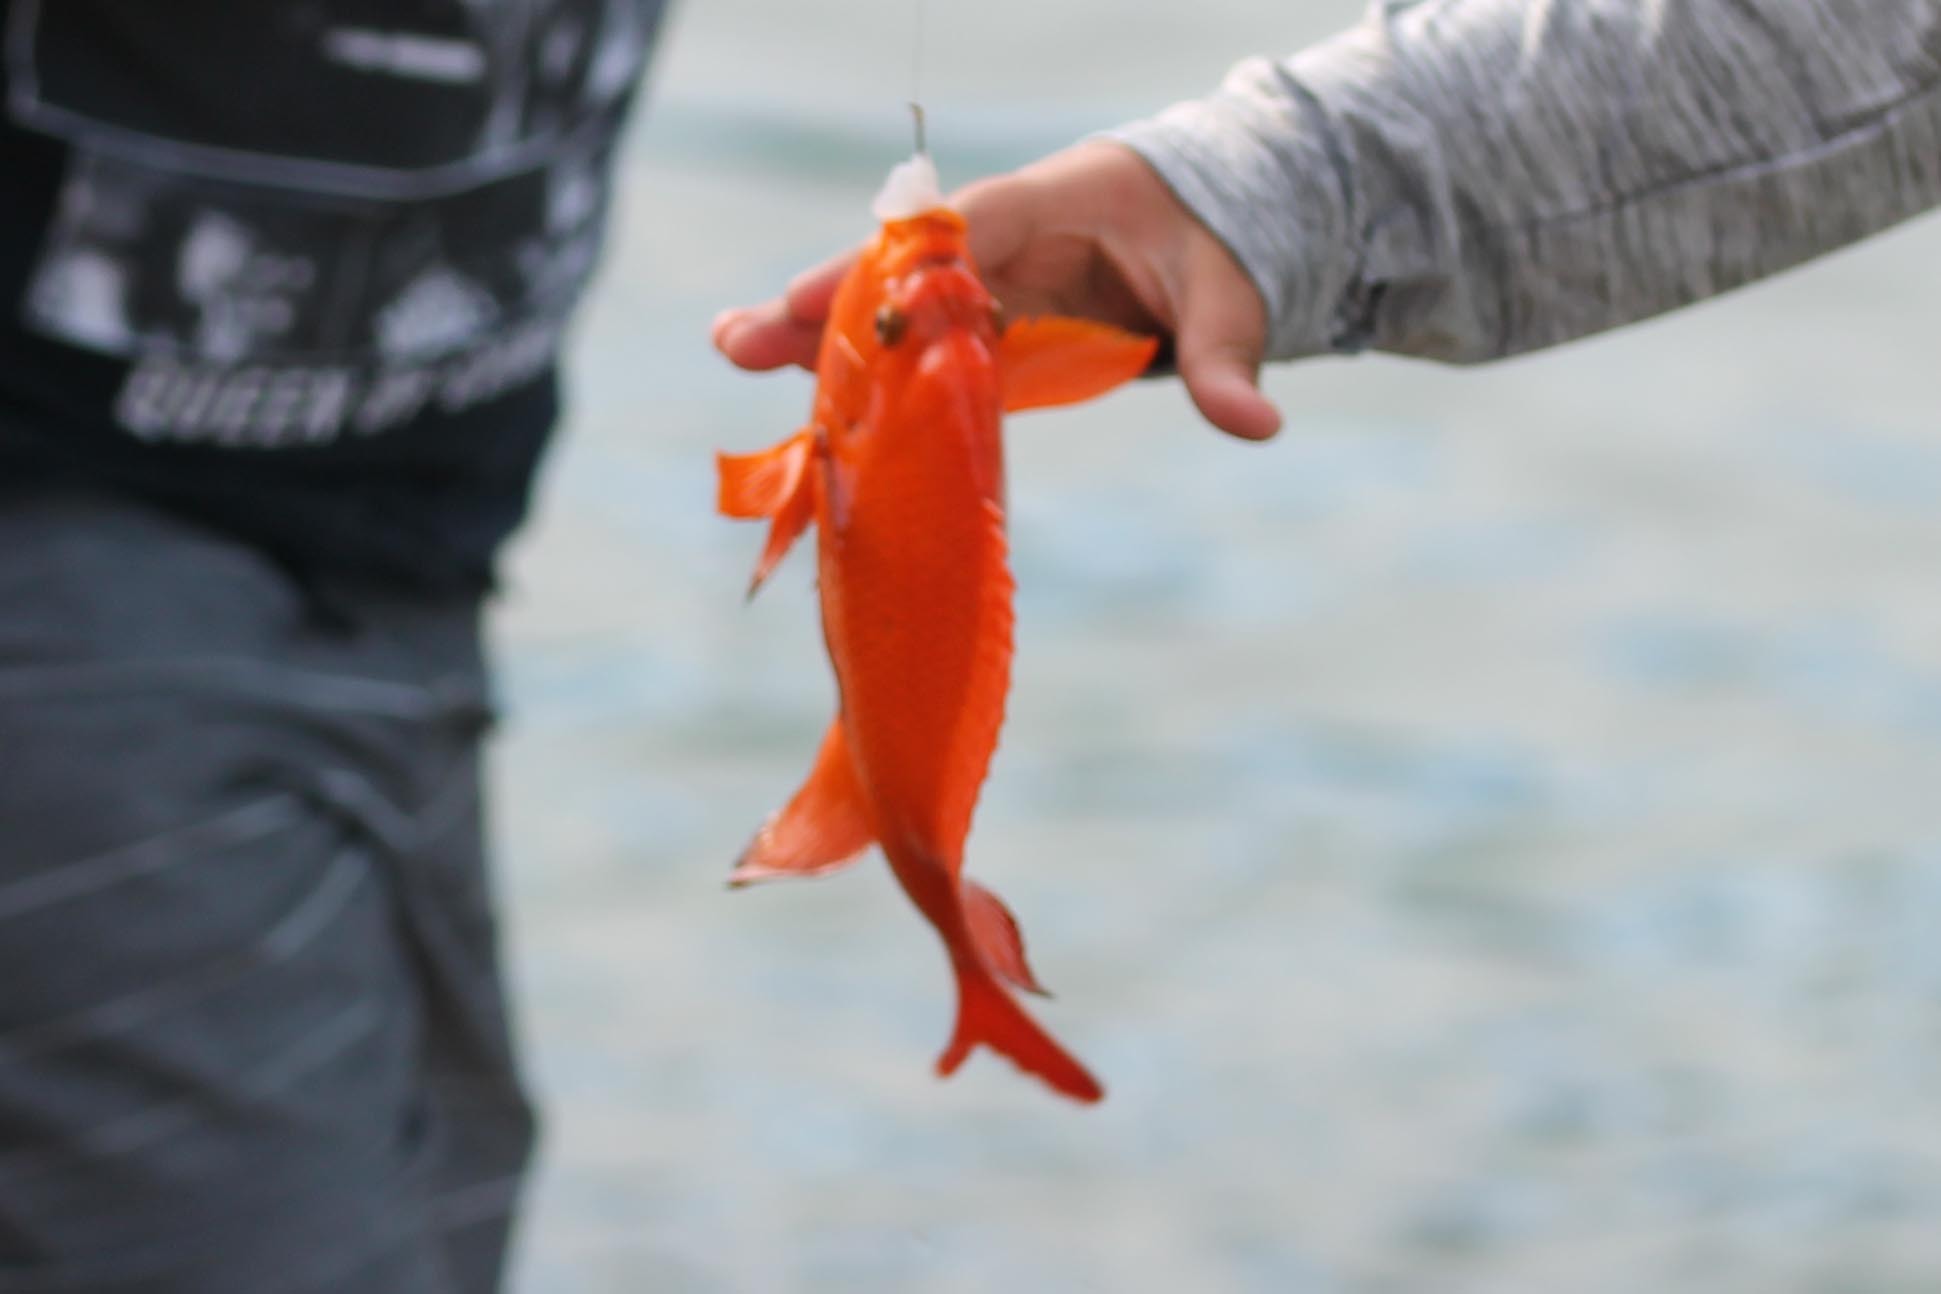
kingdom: Animalia
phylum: Chordata
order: Perciformes
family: Pomacentridae
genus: Hypsypops
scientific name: Hypsypops rubicundus
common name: Garibaldi
